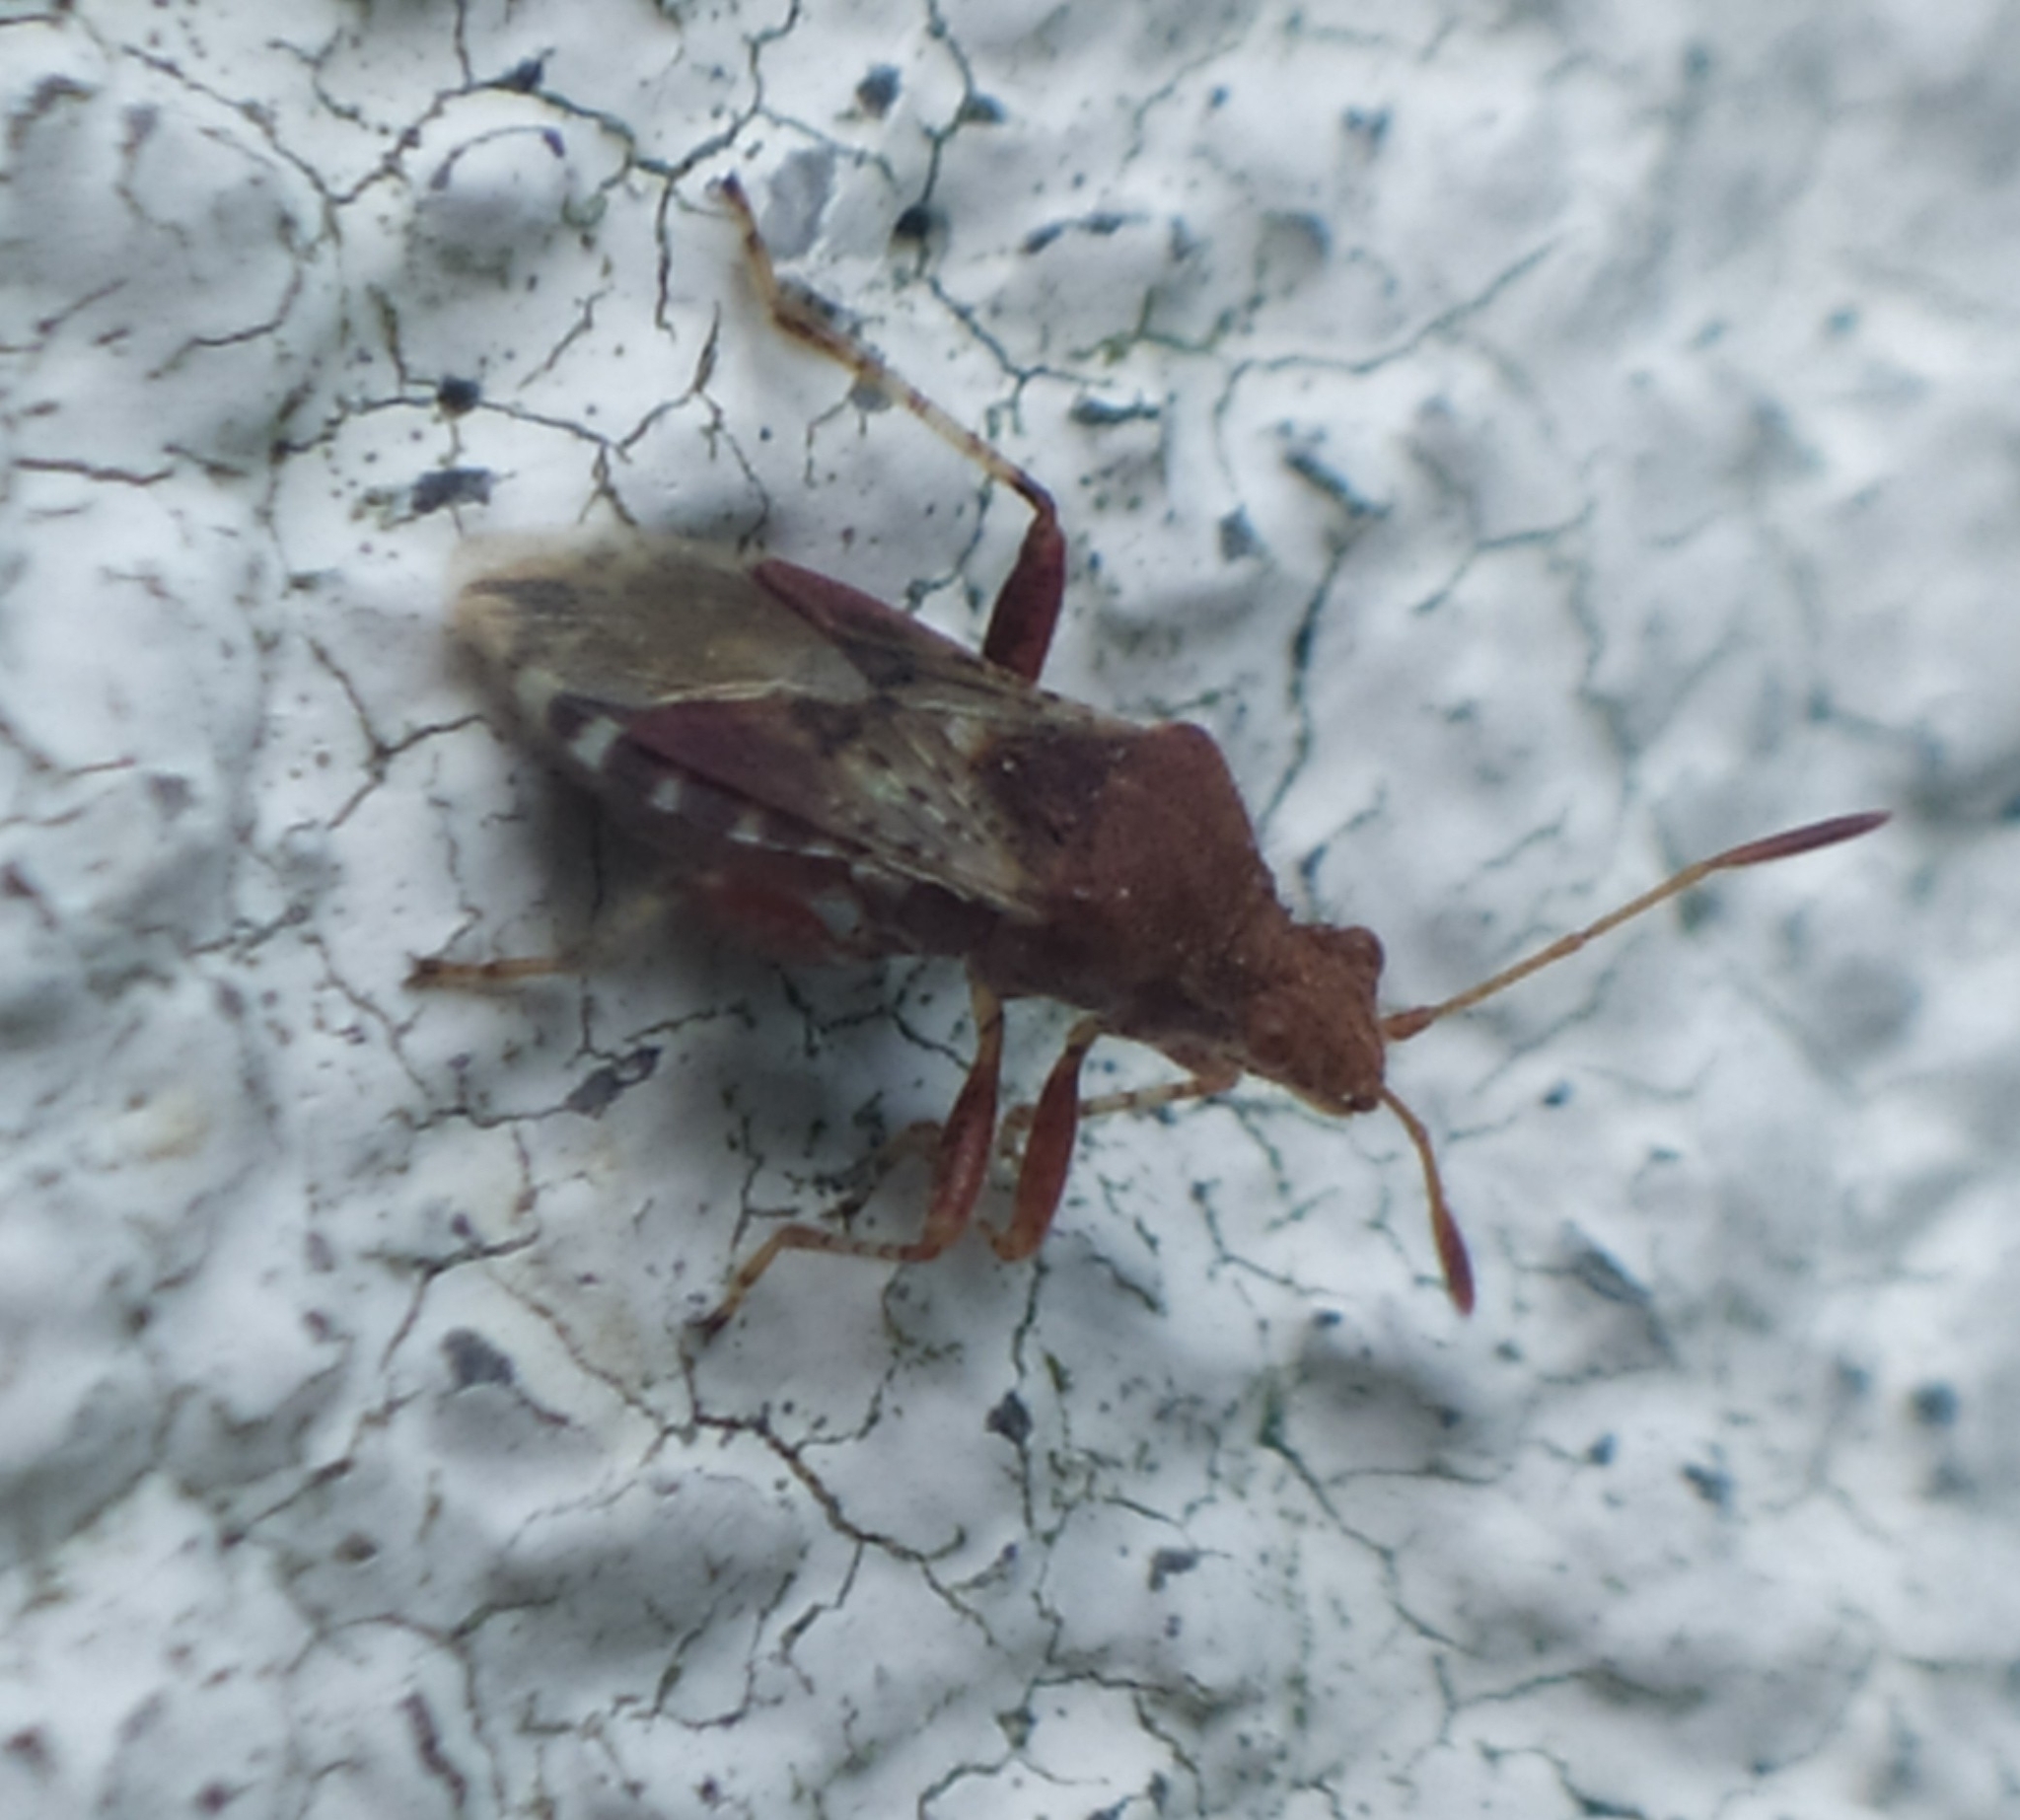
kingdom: Animalia
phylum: Arthropoda
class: Insecta
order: Hemiptera
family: Rhopalidae
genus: Rhopalus
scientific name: Rhopalus subrufus
